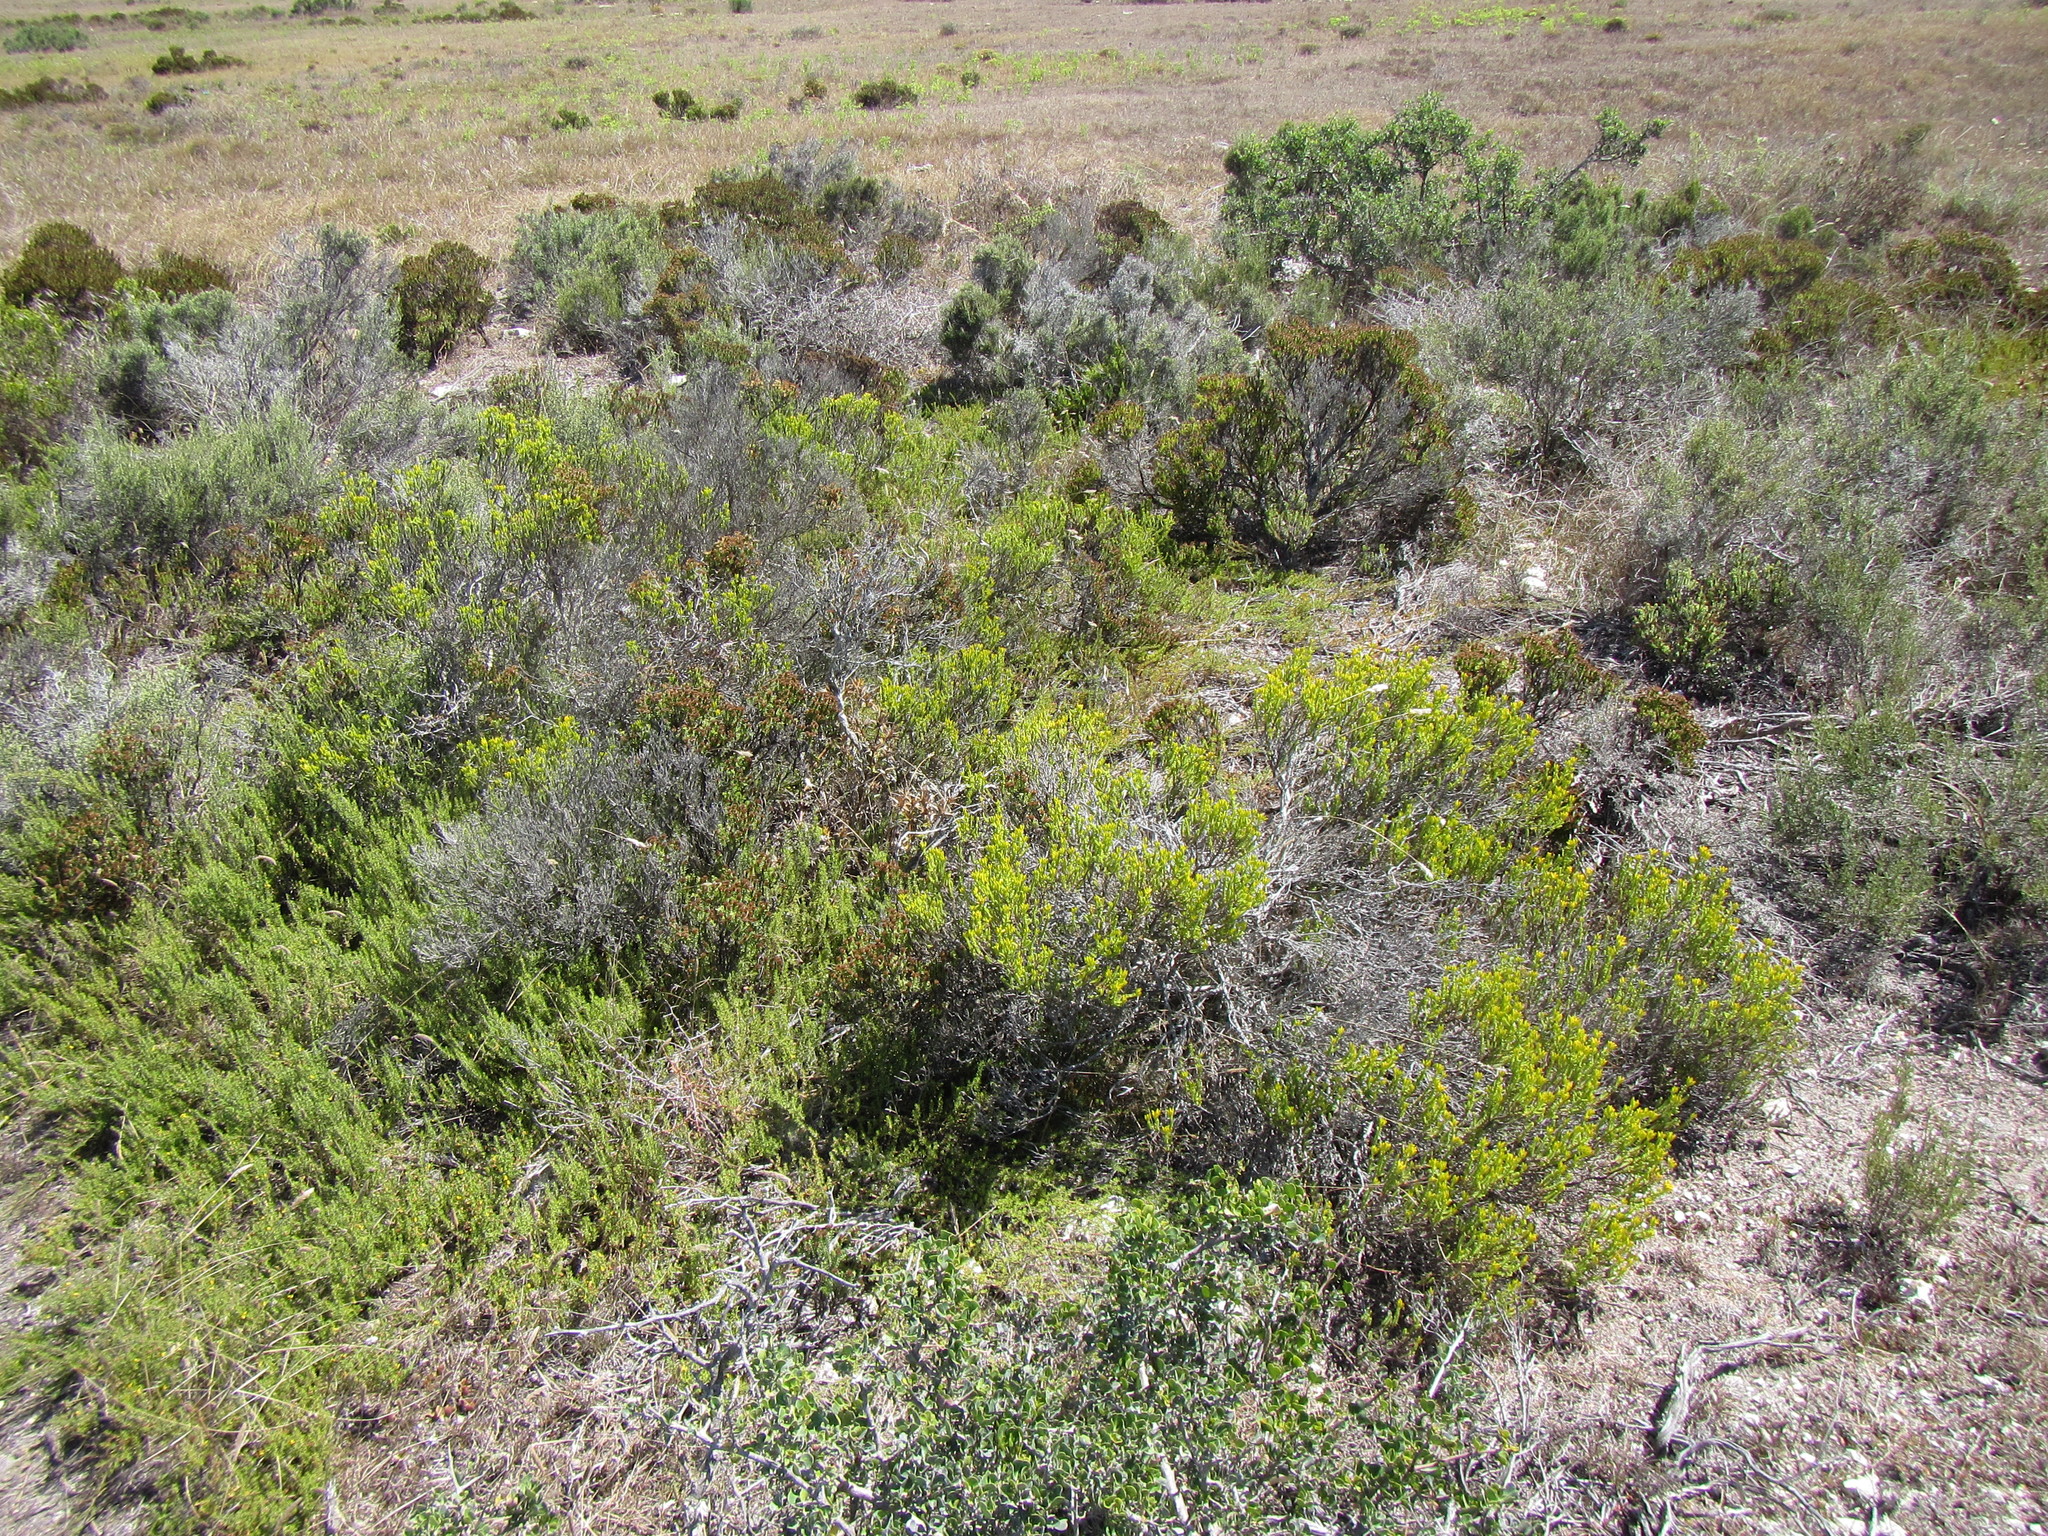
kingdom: Plantae
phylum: Tracheophyta
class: Magnoliopsida
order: Asterales
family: Asteraceae
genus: Pteronia
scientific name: Pteronia diosmifolia
